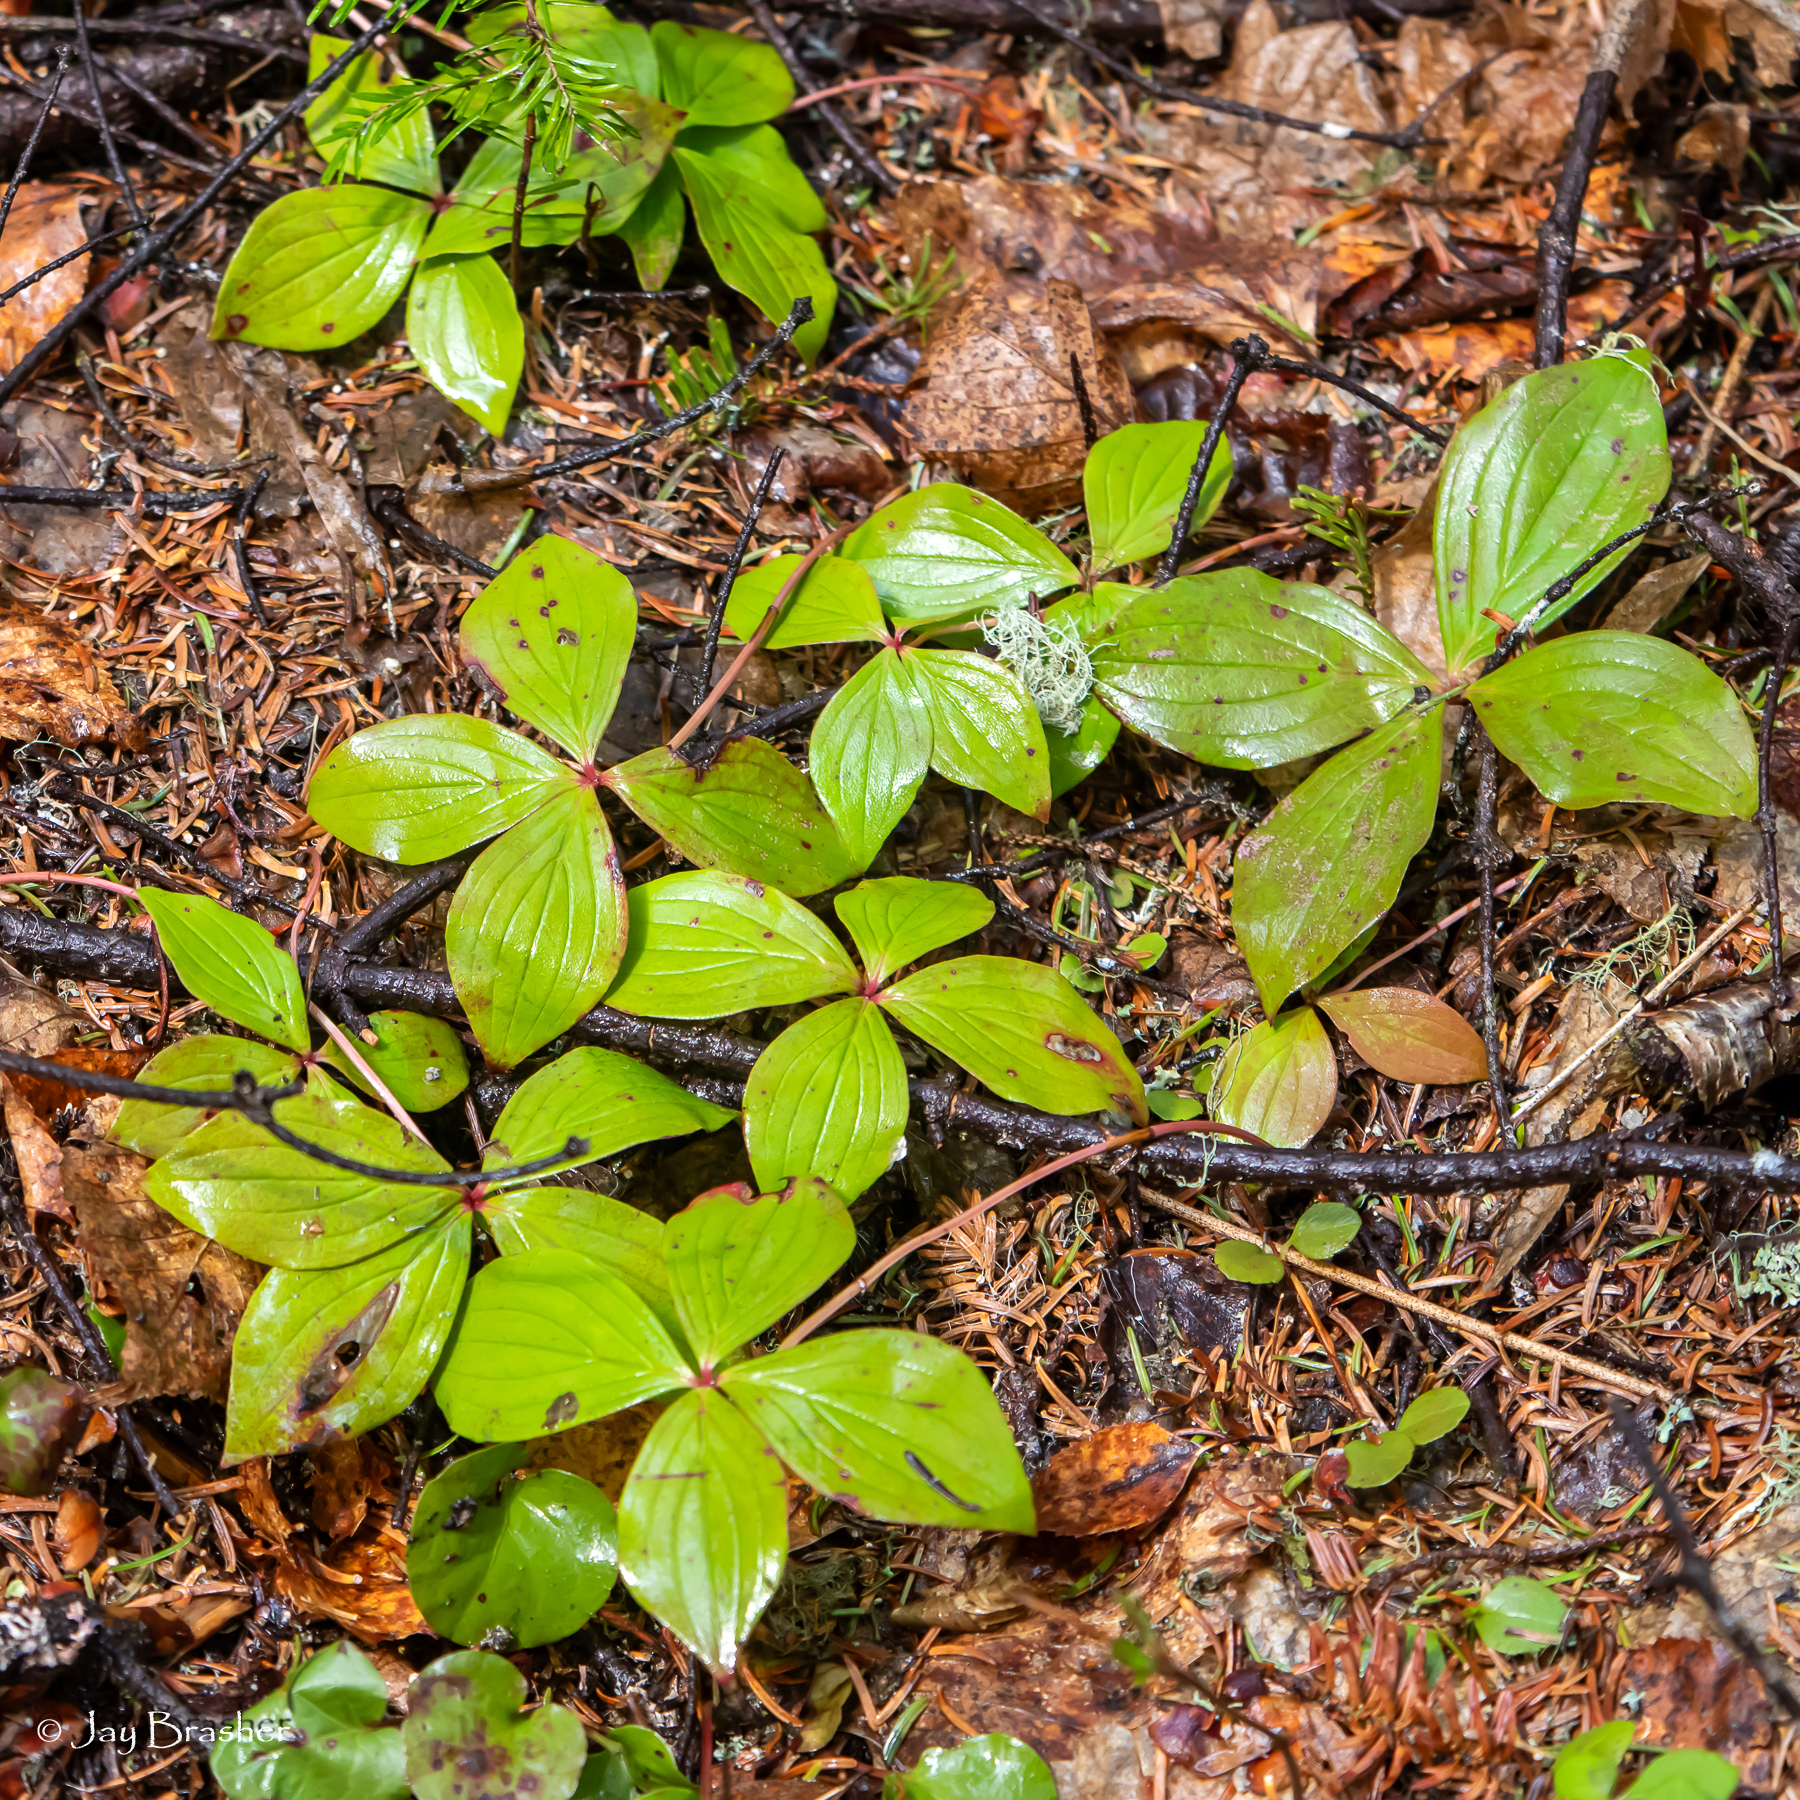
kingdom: Plantae
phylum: Tracheophyta
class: Magnoliopsida
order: Cornales
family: Cornaceae
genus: Cornus
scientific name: Cornus canadensis
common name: Creeping dogwood
